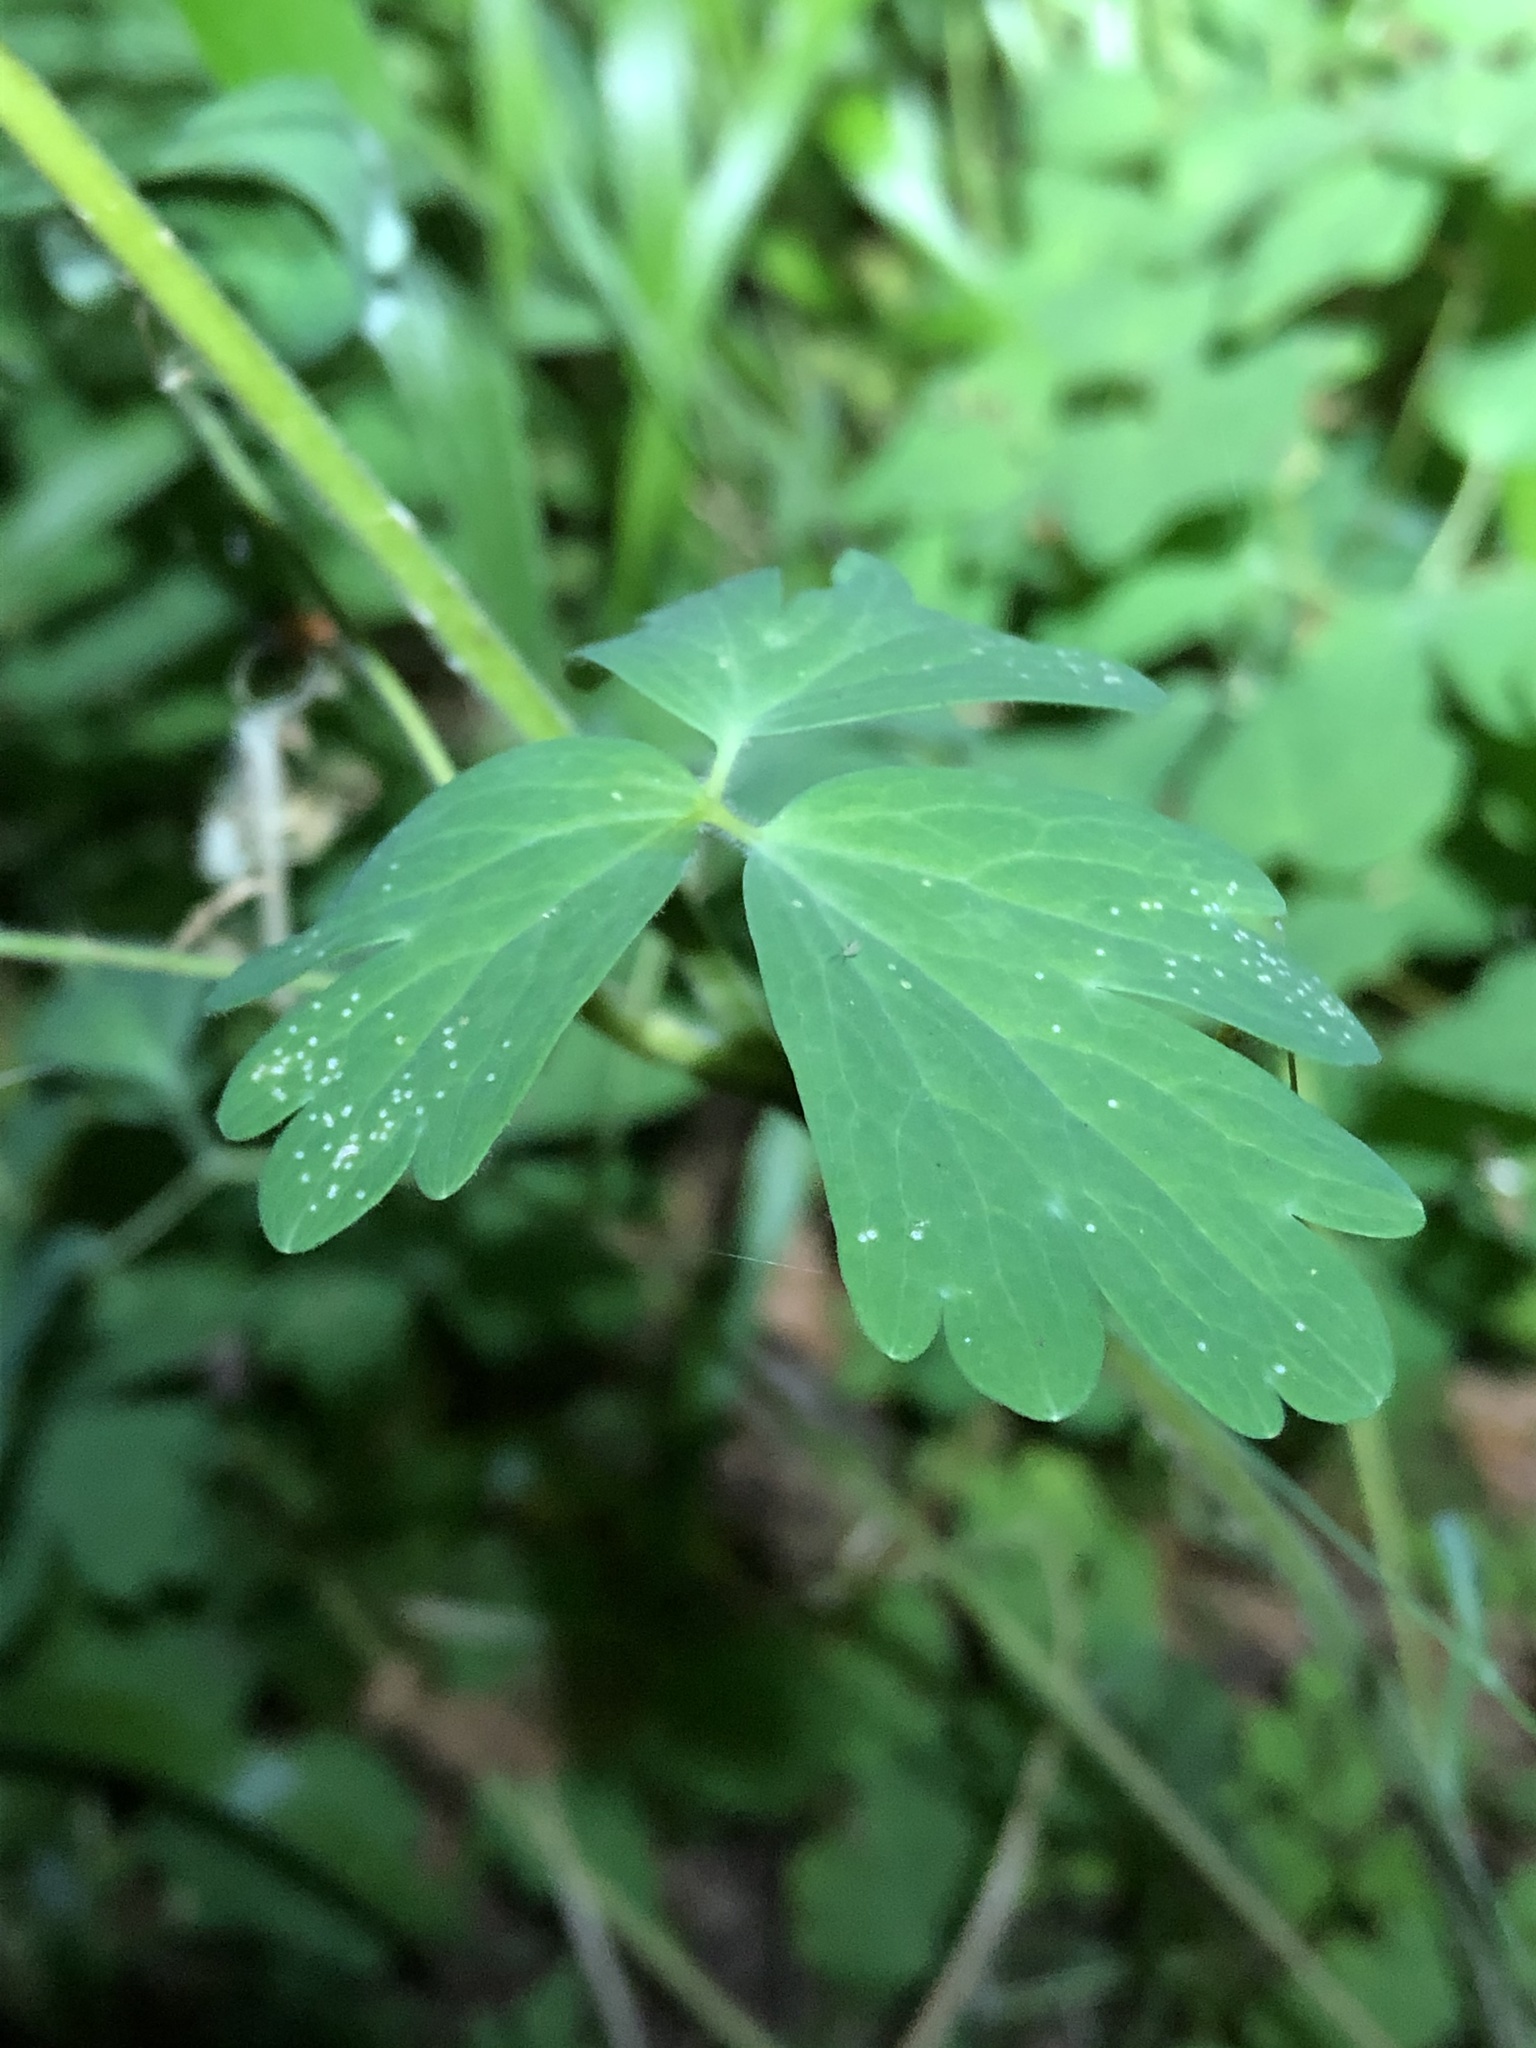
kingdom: Plantae
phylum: Tracheophyta
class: Magnoliopsida
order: Ranunculales
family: Ranunculaceae
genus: Aquilegia
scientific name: Aquilegia formosa
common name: Sitka columbine
